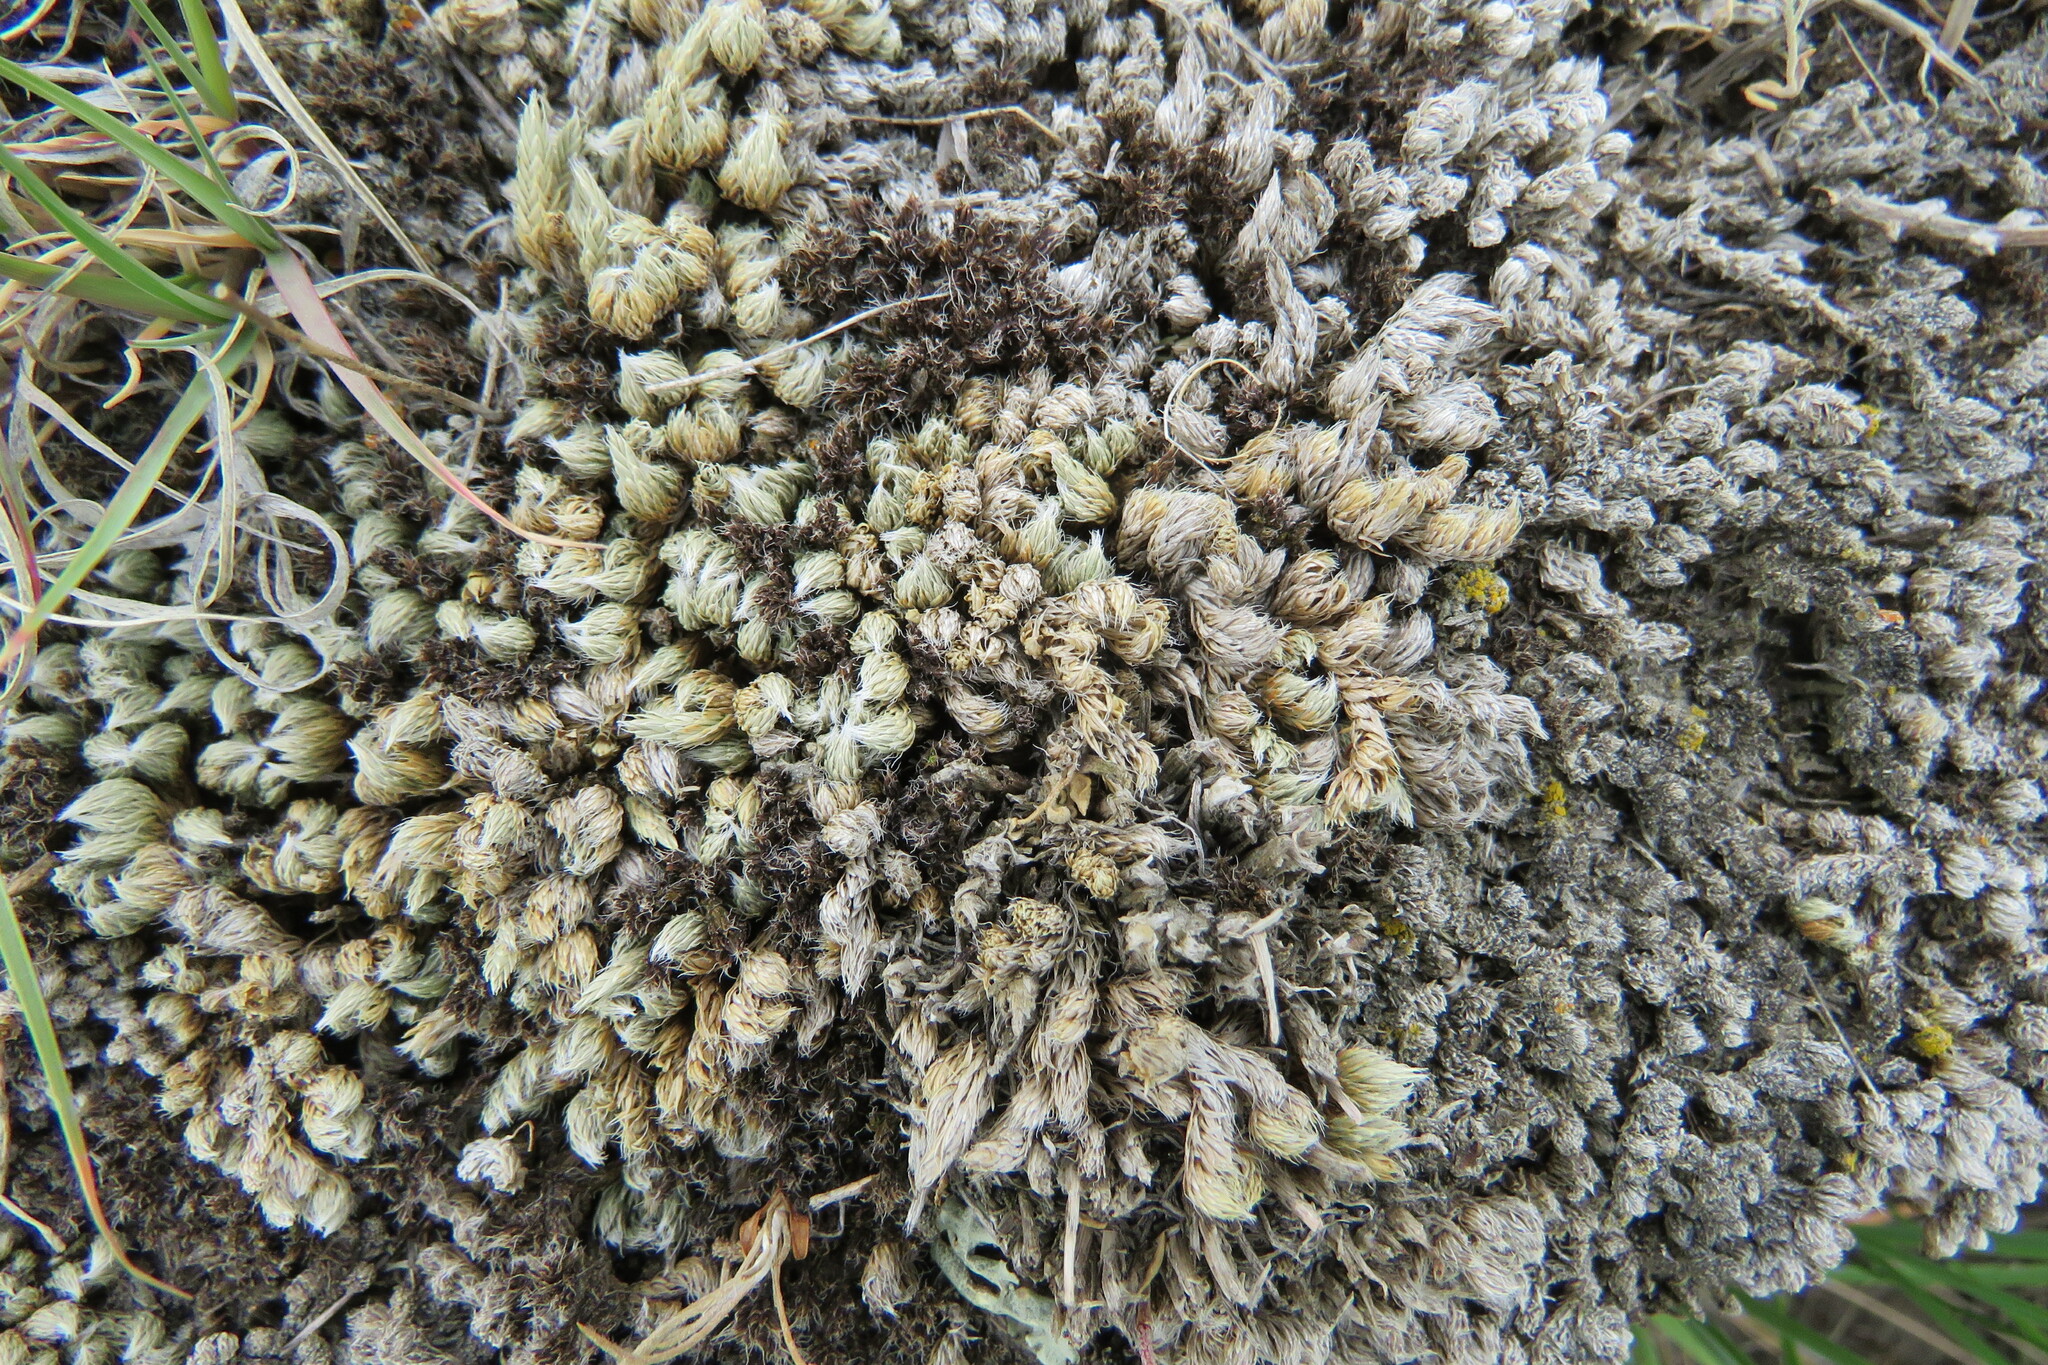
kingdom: Plantae
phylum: Tracheophyta
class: Lycopodiopsida
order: Selaginellales
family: Selaginellaceae
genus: Selaginella
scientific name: Selaginella densa
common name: Mountain spike-moss
